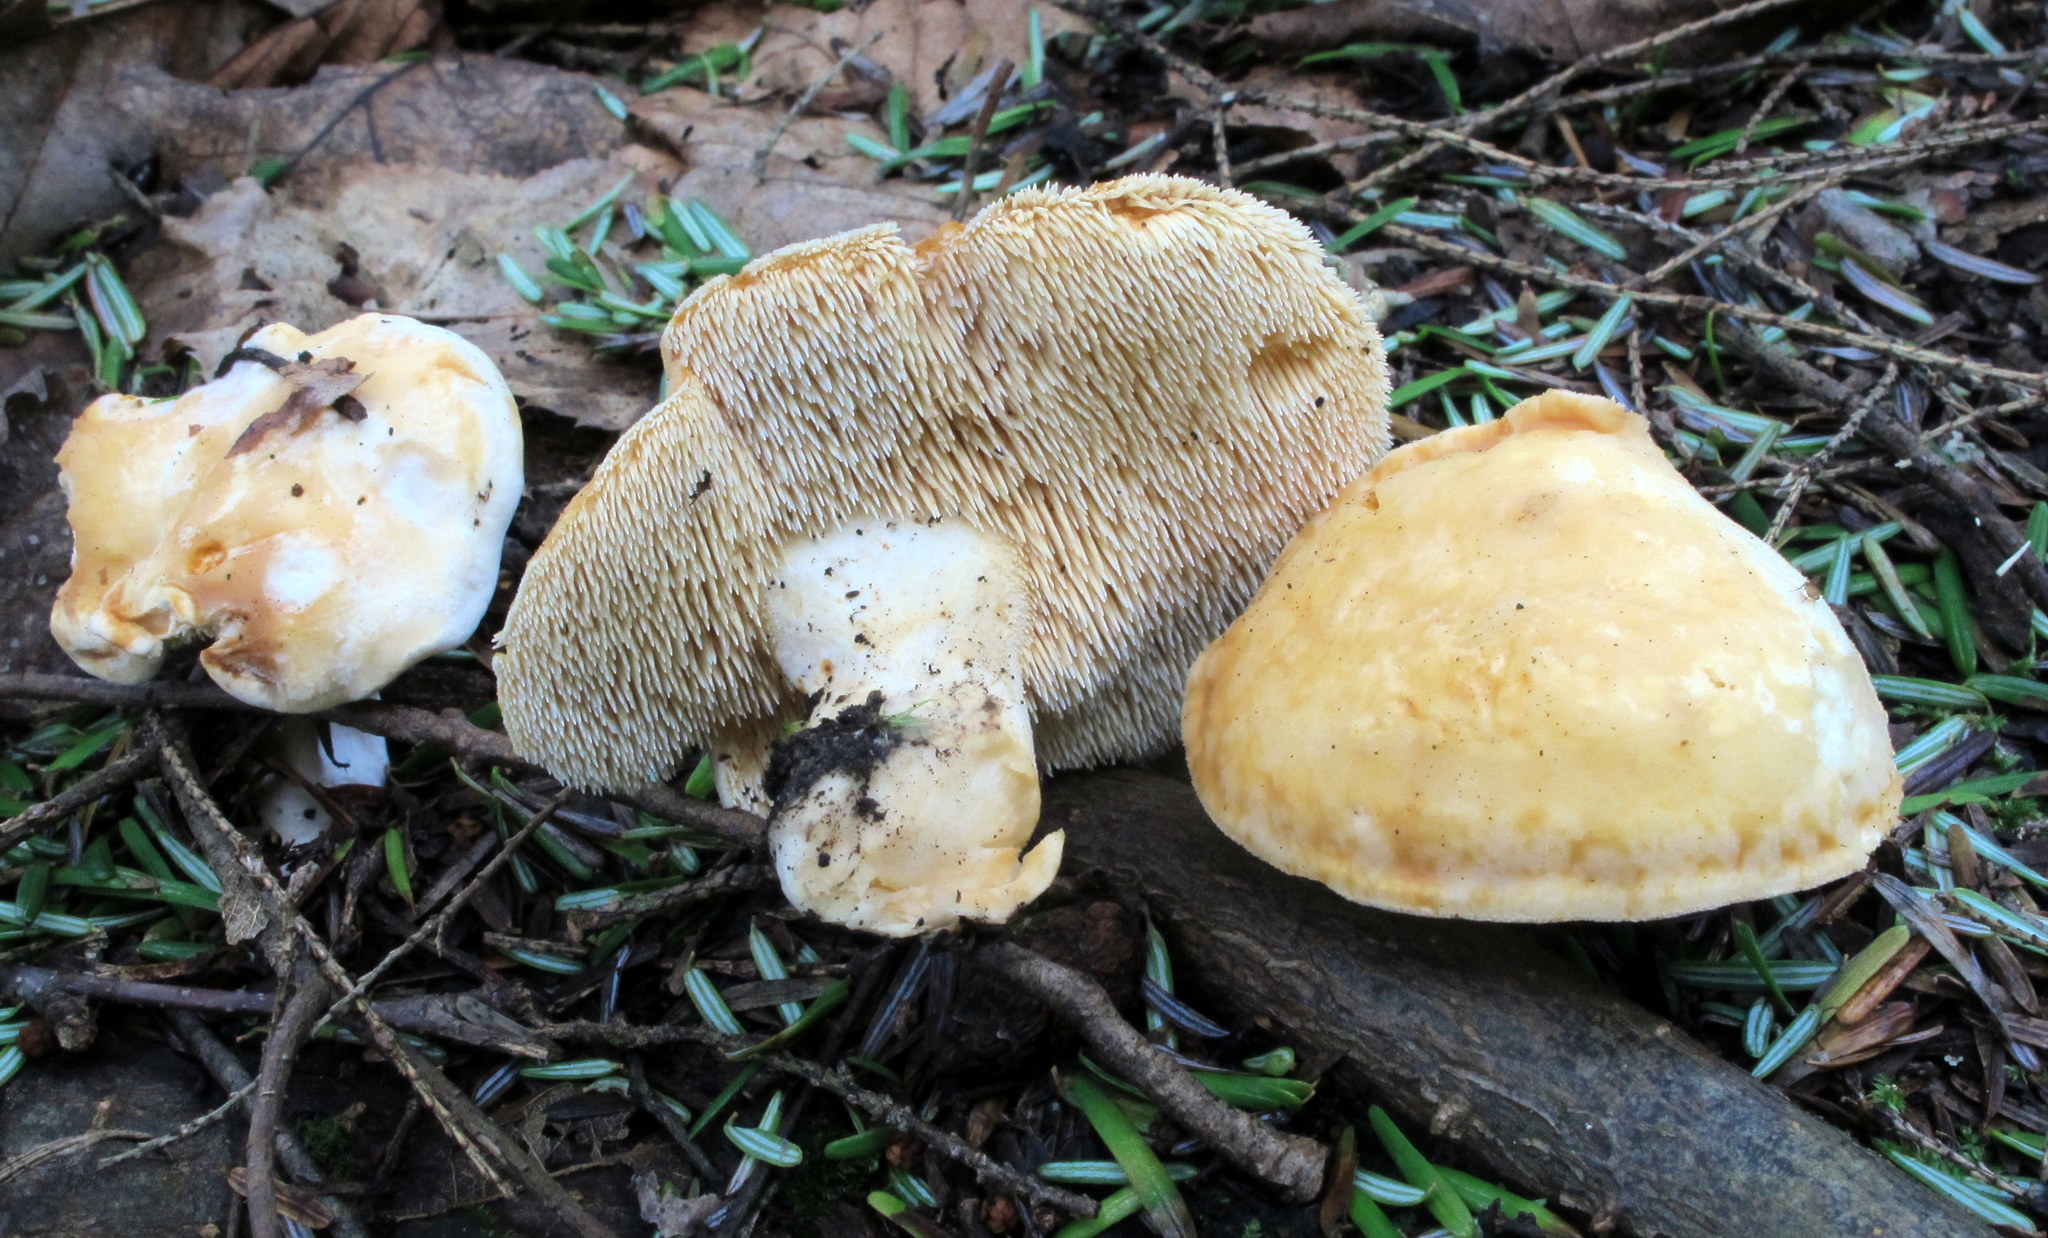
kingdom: Fungi
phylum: Basidiomycota
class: Agaricomycetes
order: Cantharellales
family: Hydnaceae
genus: Hydnum
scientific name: Hydnum albidum
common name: White hedgehog
